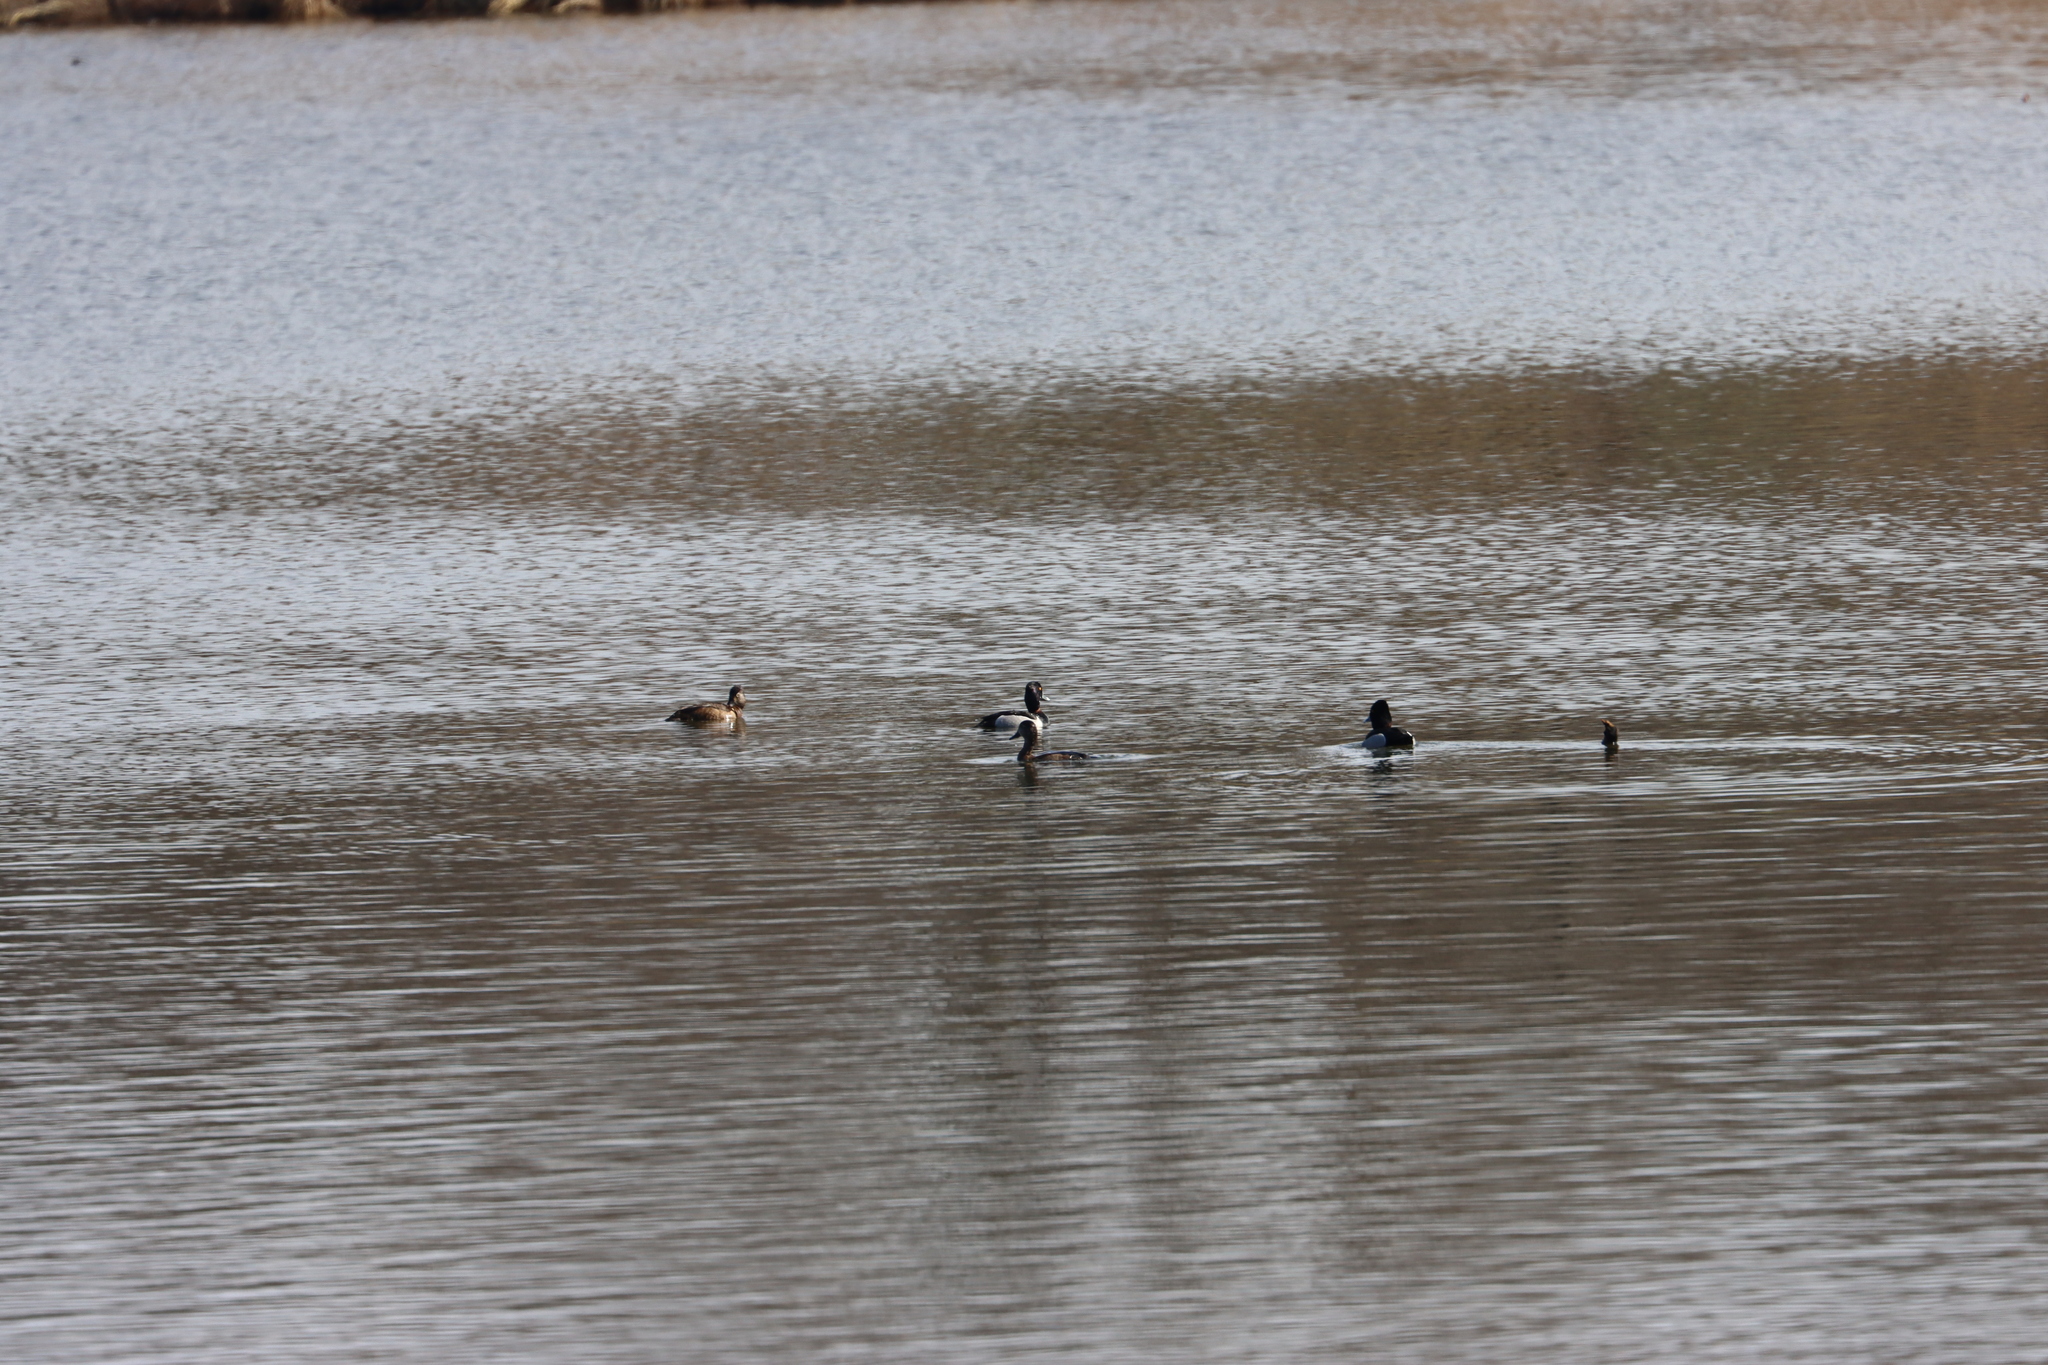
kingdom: Animalia
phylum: Chordata
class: Aves
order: Anseriformes
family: Anatidae
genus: Aythya
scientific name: Aythya collaris
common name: Ring-necked duck
